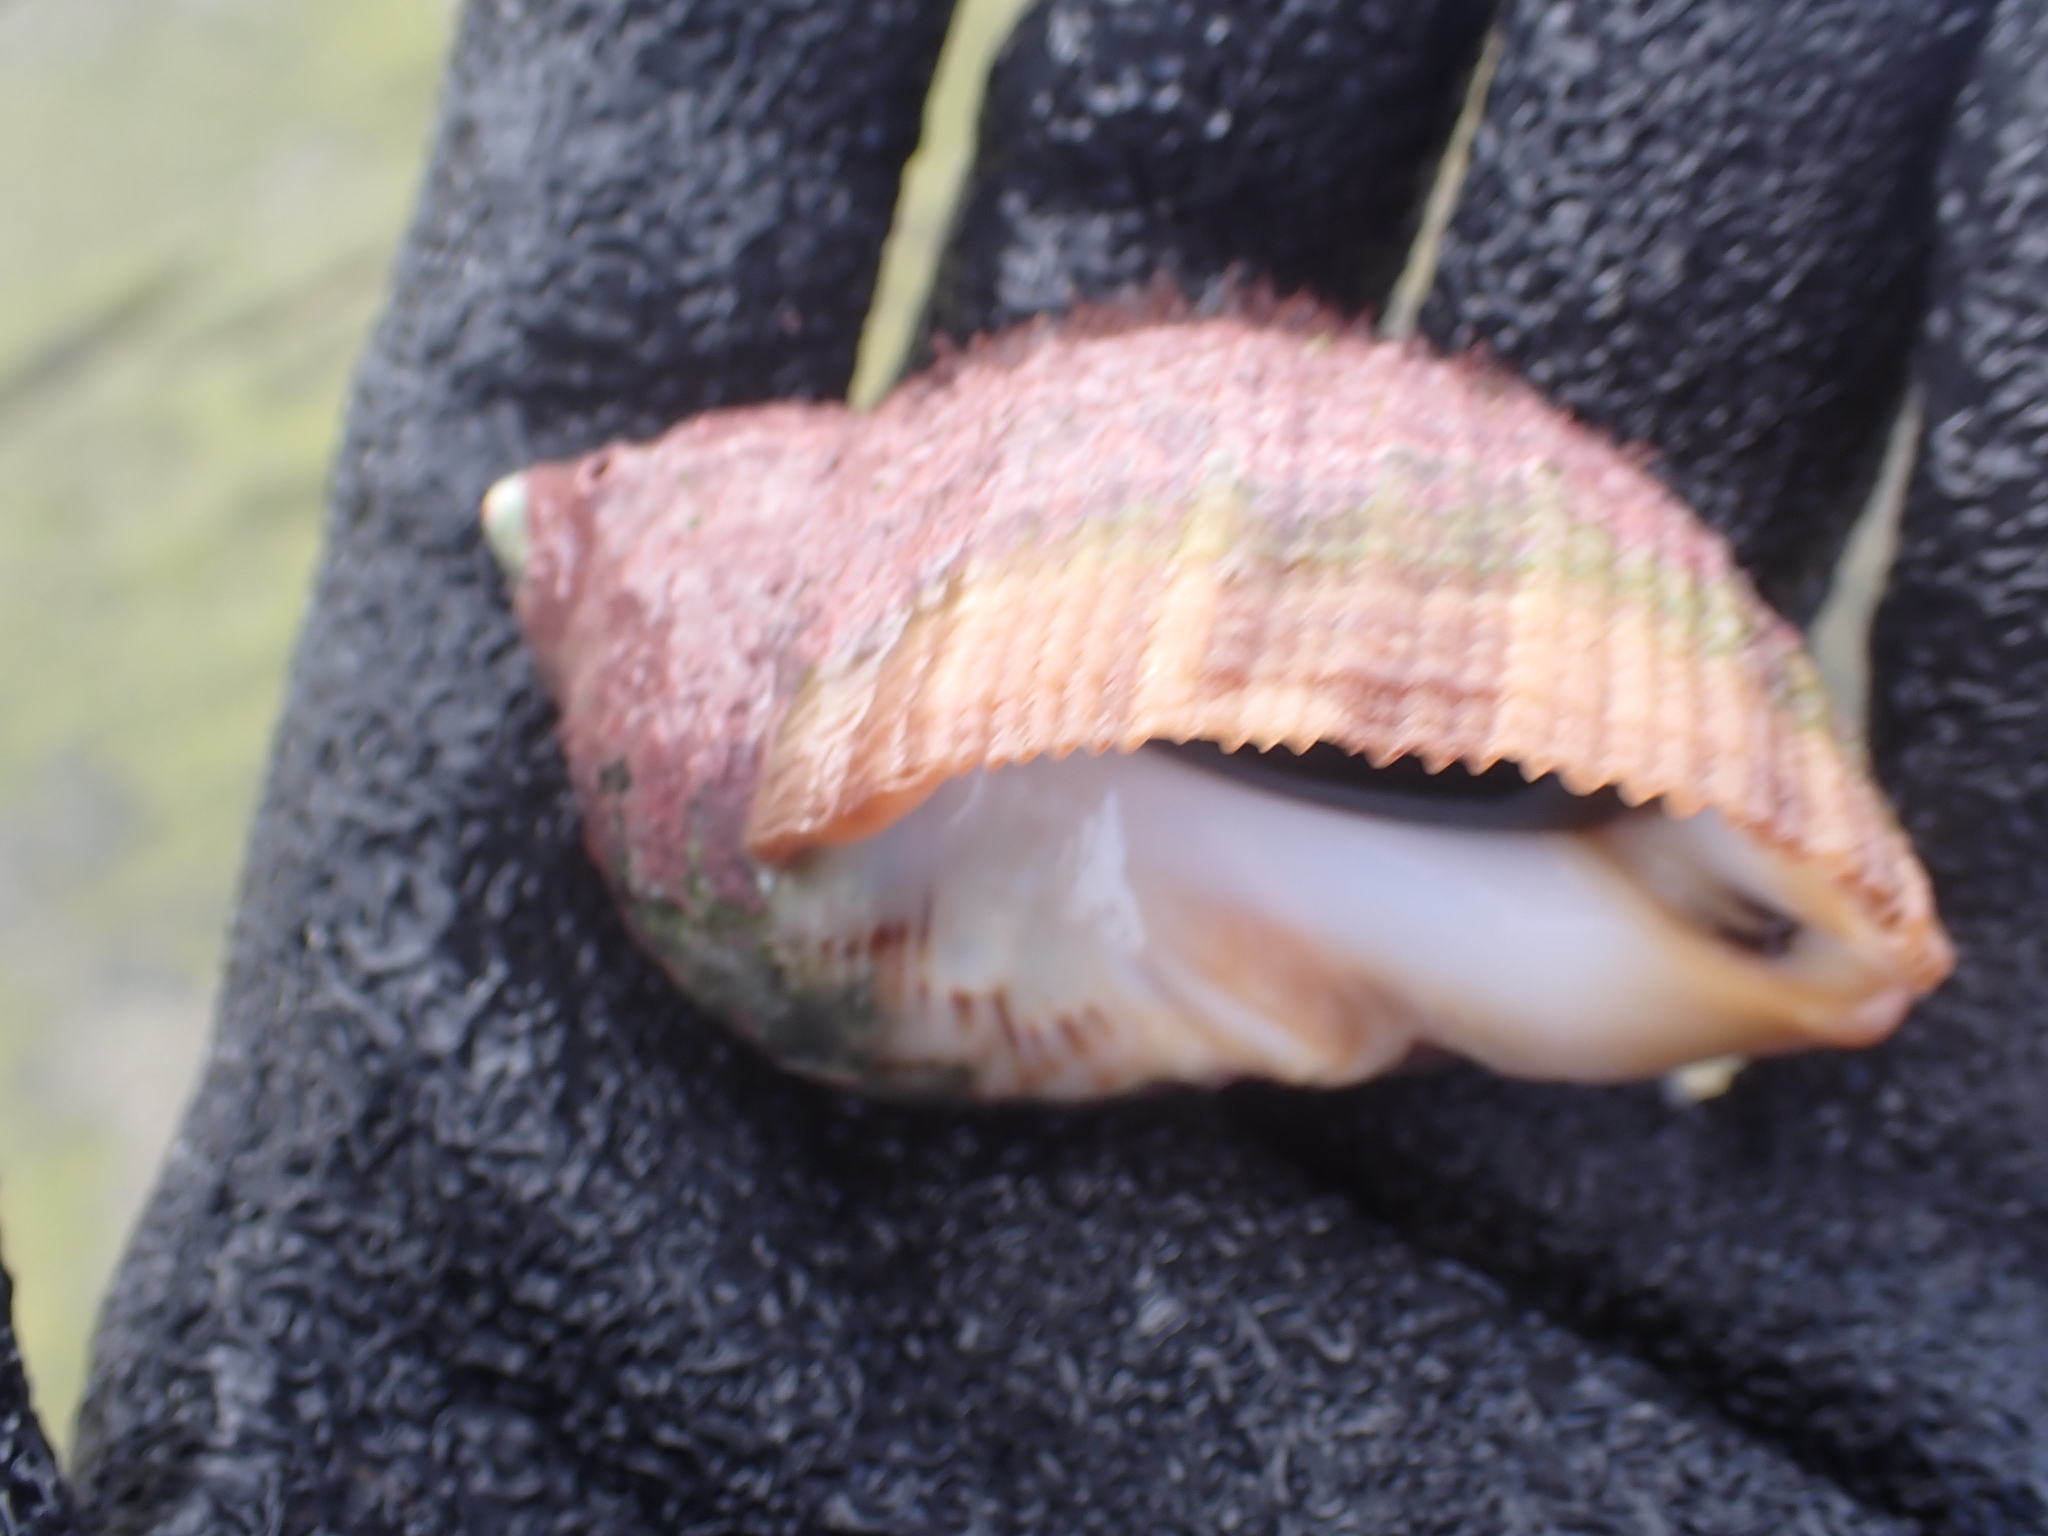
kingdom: Animalia
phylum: Mollusca
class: Gastropoda
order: Neogastropoda
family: Muricidae
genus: Dicathais
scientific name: Dicathais orbita
